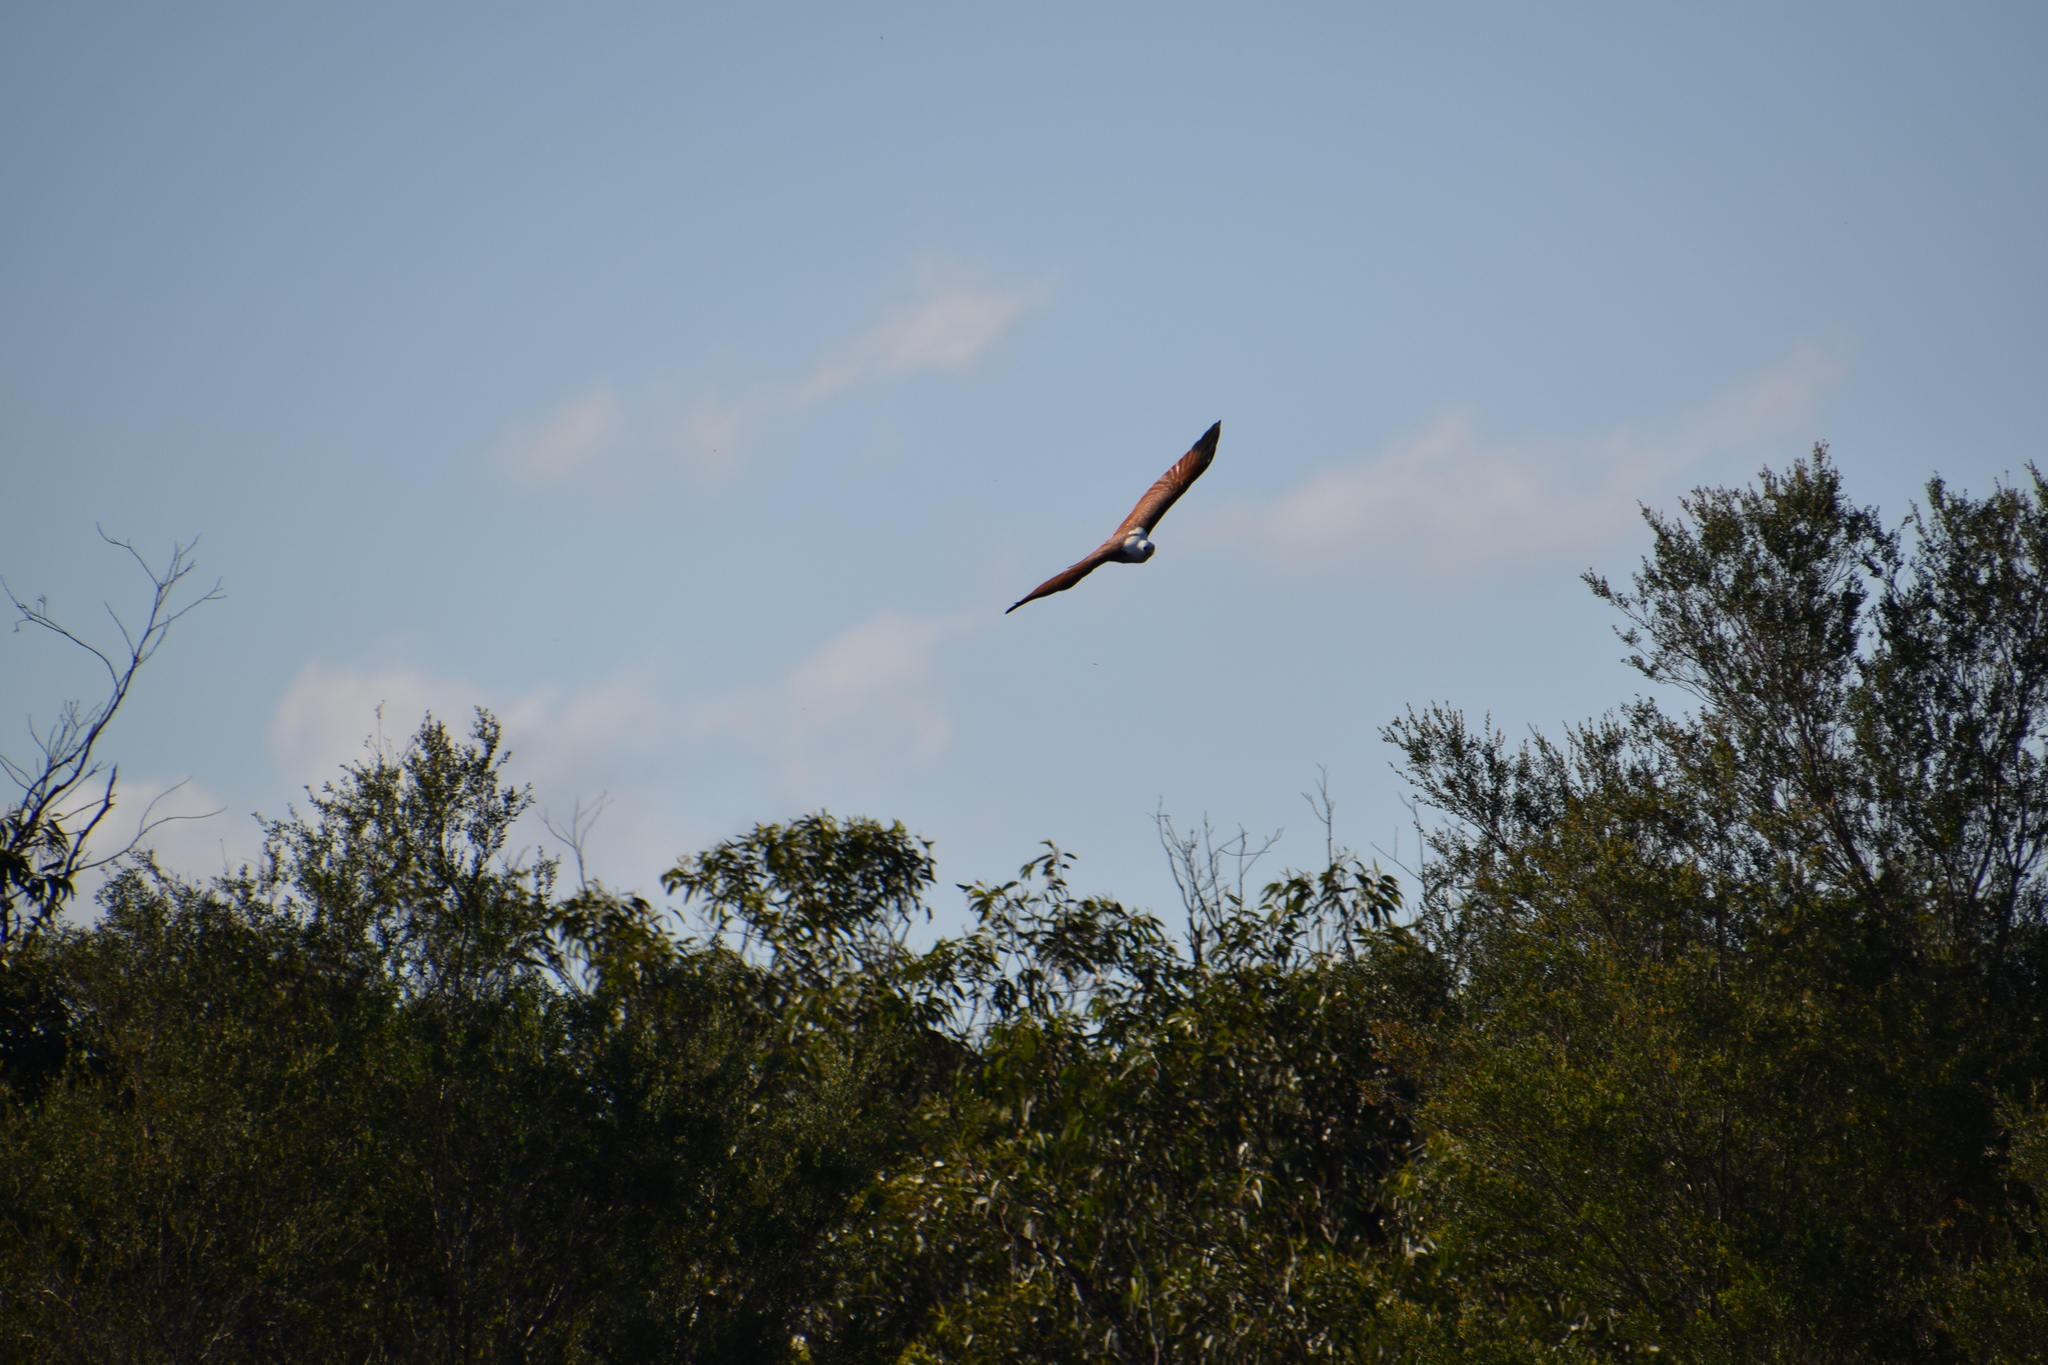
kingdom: Animalia
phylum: Chordata
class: Aves
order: Accipitriformes
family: Accipitridae
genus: Haliastur
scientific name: Haliastur indus
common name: Brahminy kite
